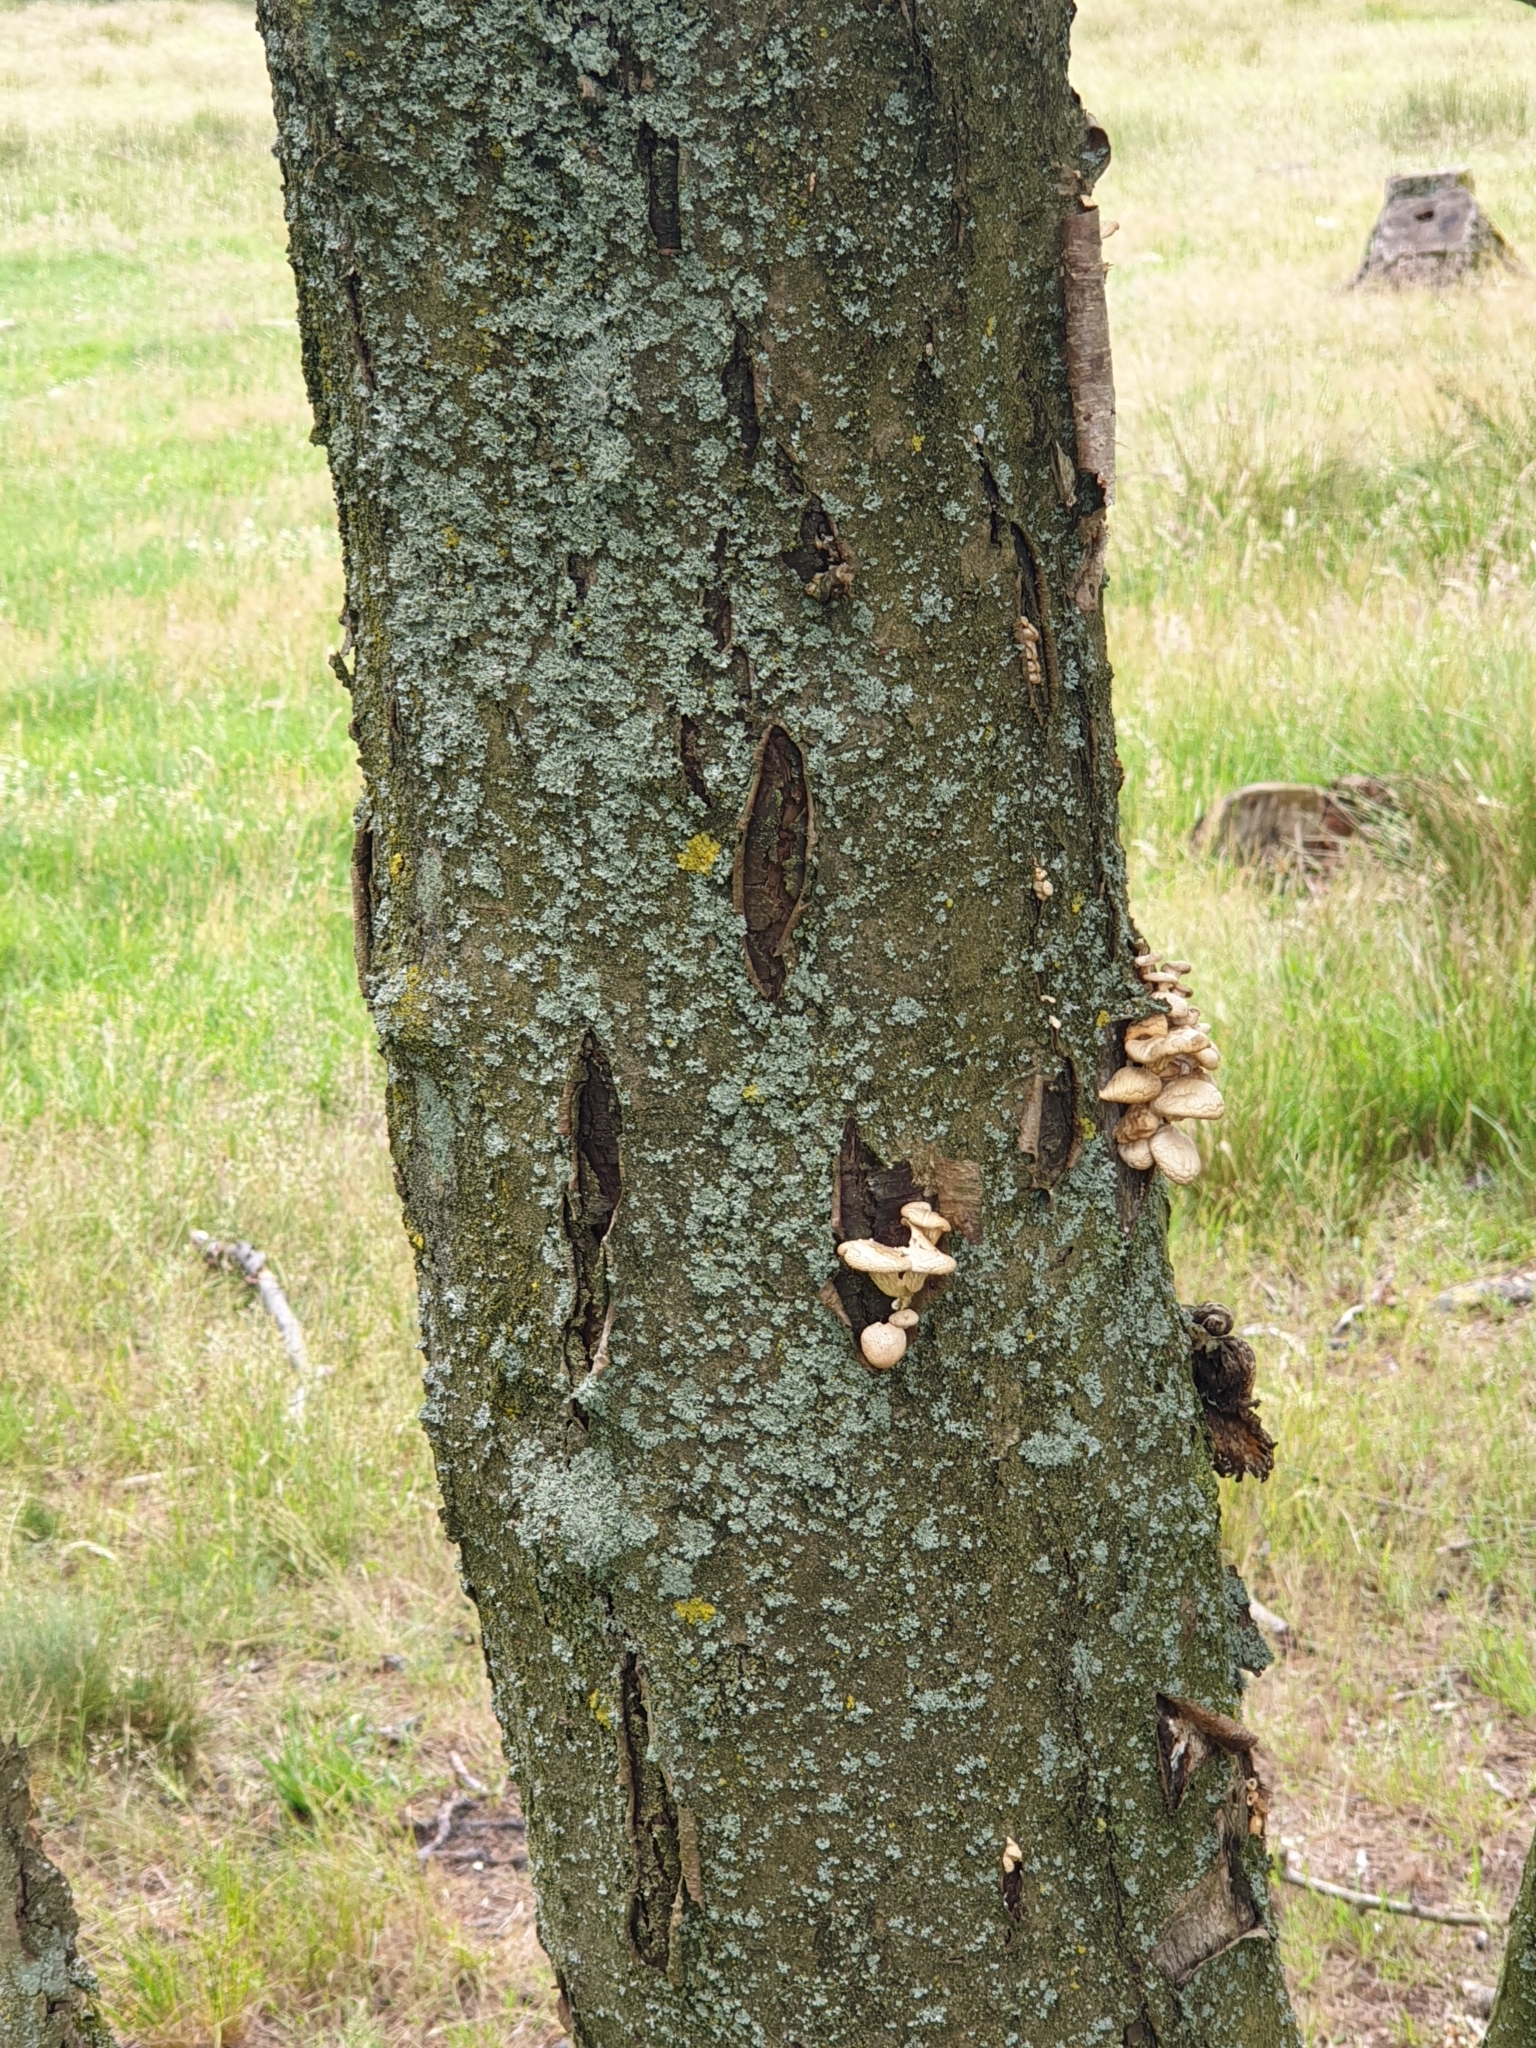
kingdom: Fungi
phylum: Basidiomycota
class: Agaricomycetes
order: Agaricales
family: Pleurotaceae
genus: Pleurotus
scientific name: Pleurotus pulmonarius
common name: Pale oyster
